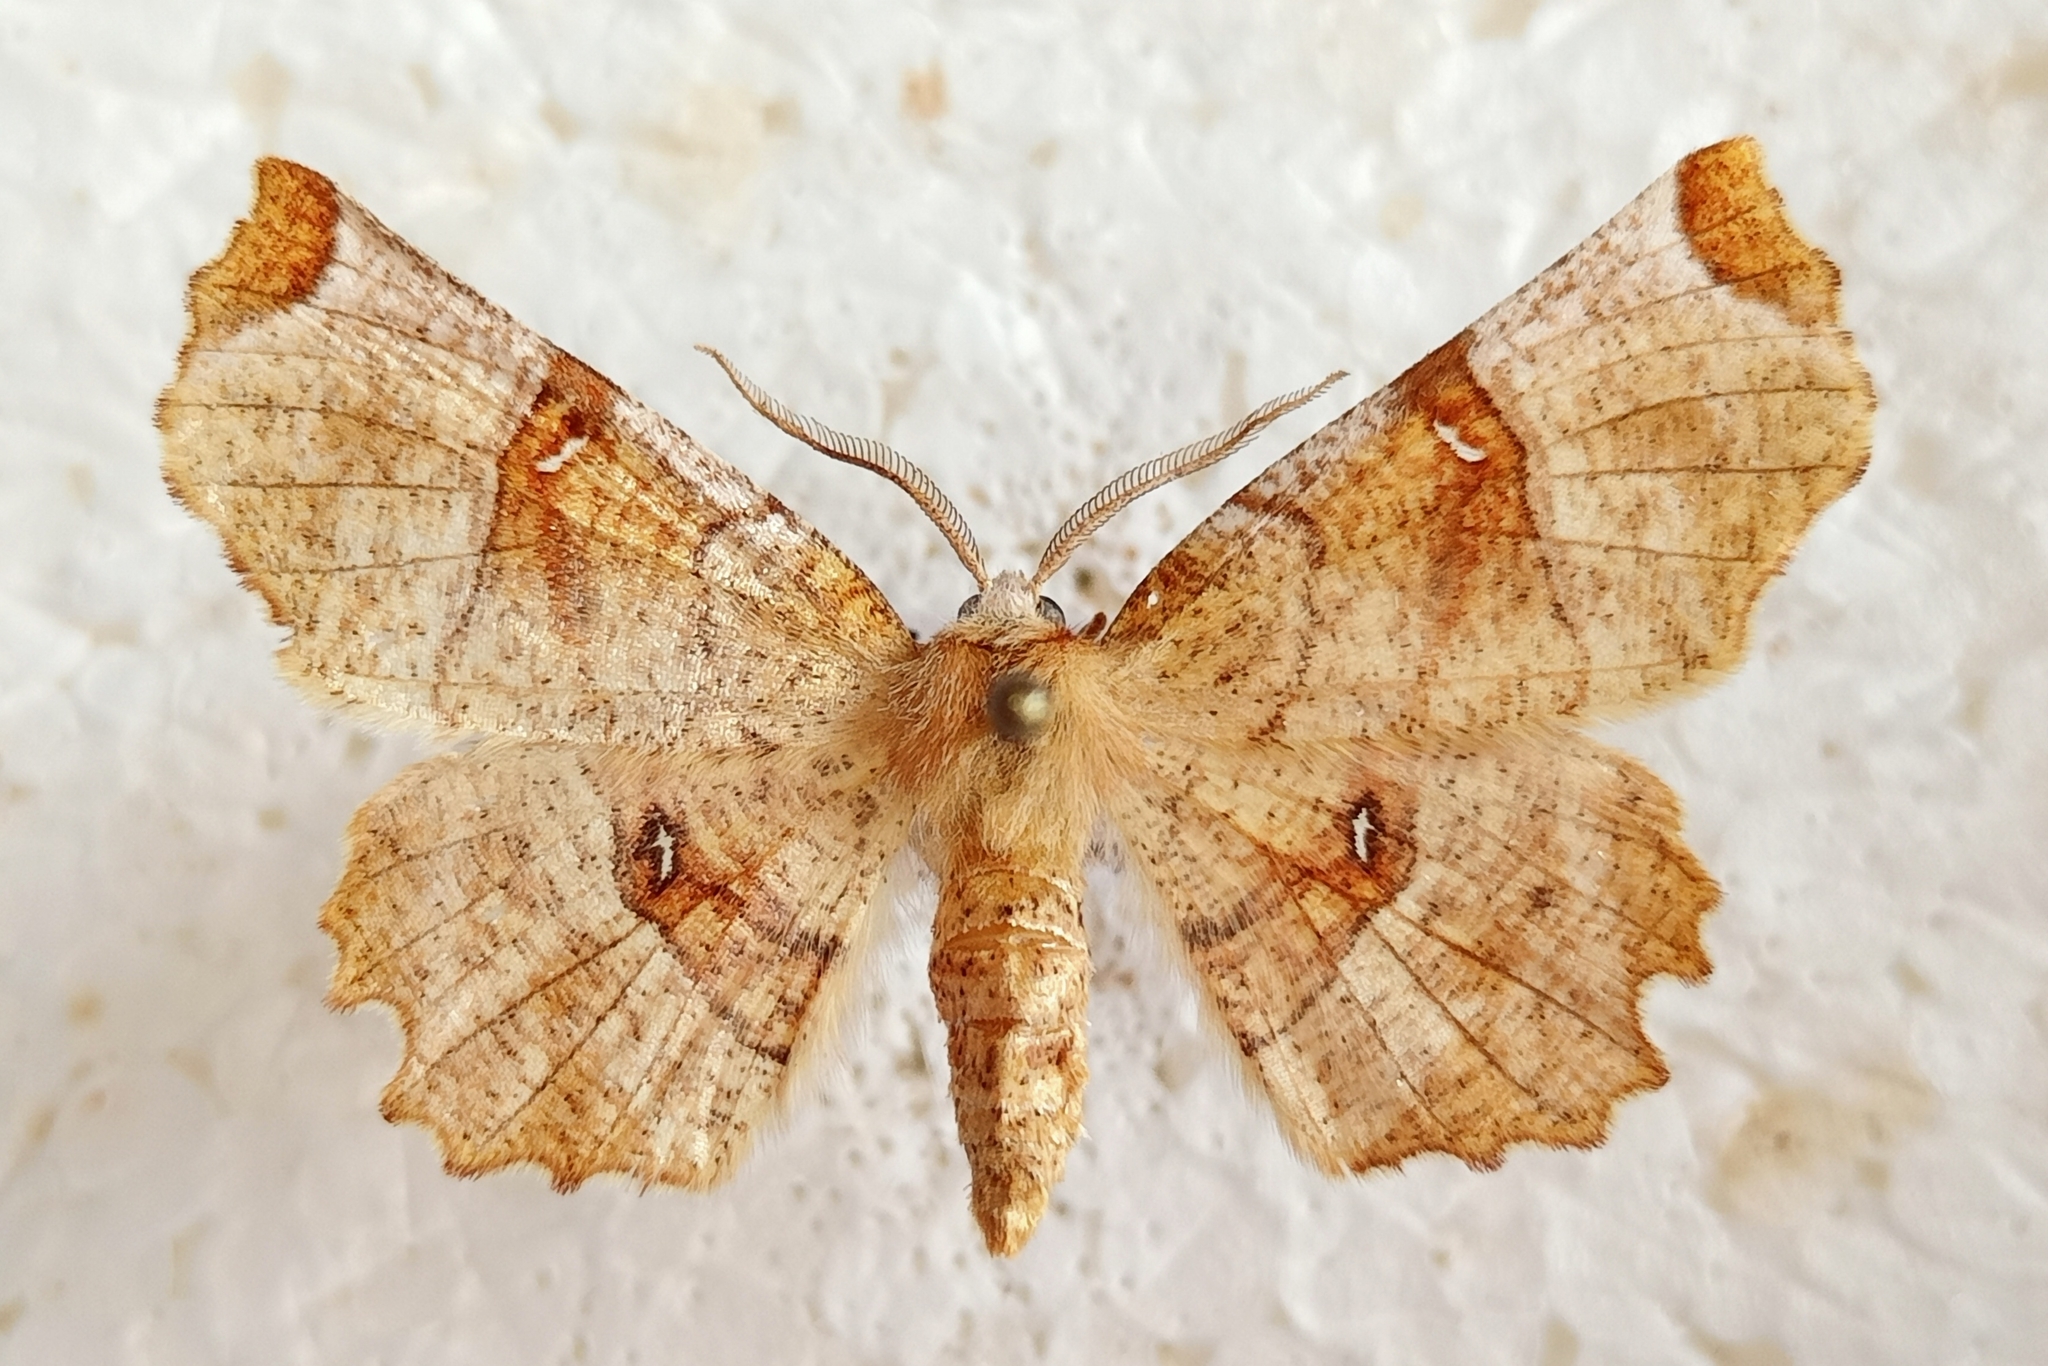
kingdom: Animalia
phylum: Arthropoda
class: Insecta
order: Lepidoptera
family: Geometridae
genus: Selenia
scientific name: Selenia lunularia
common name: Lunar thorn
